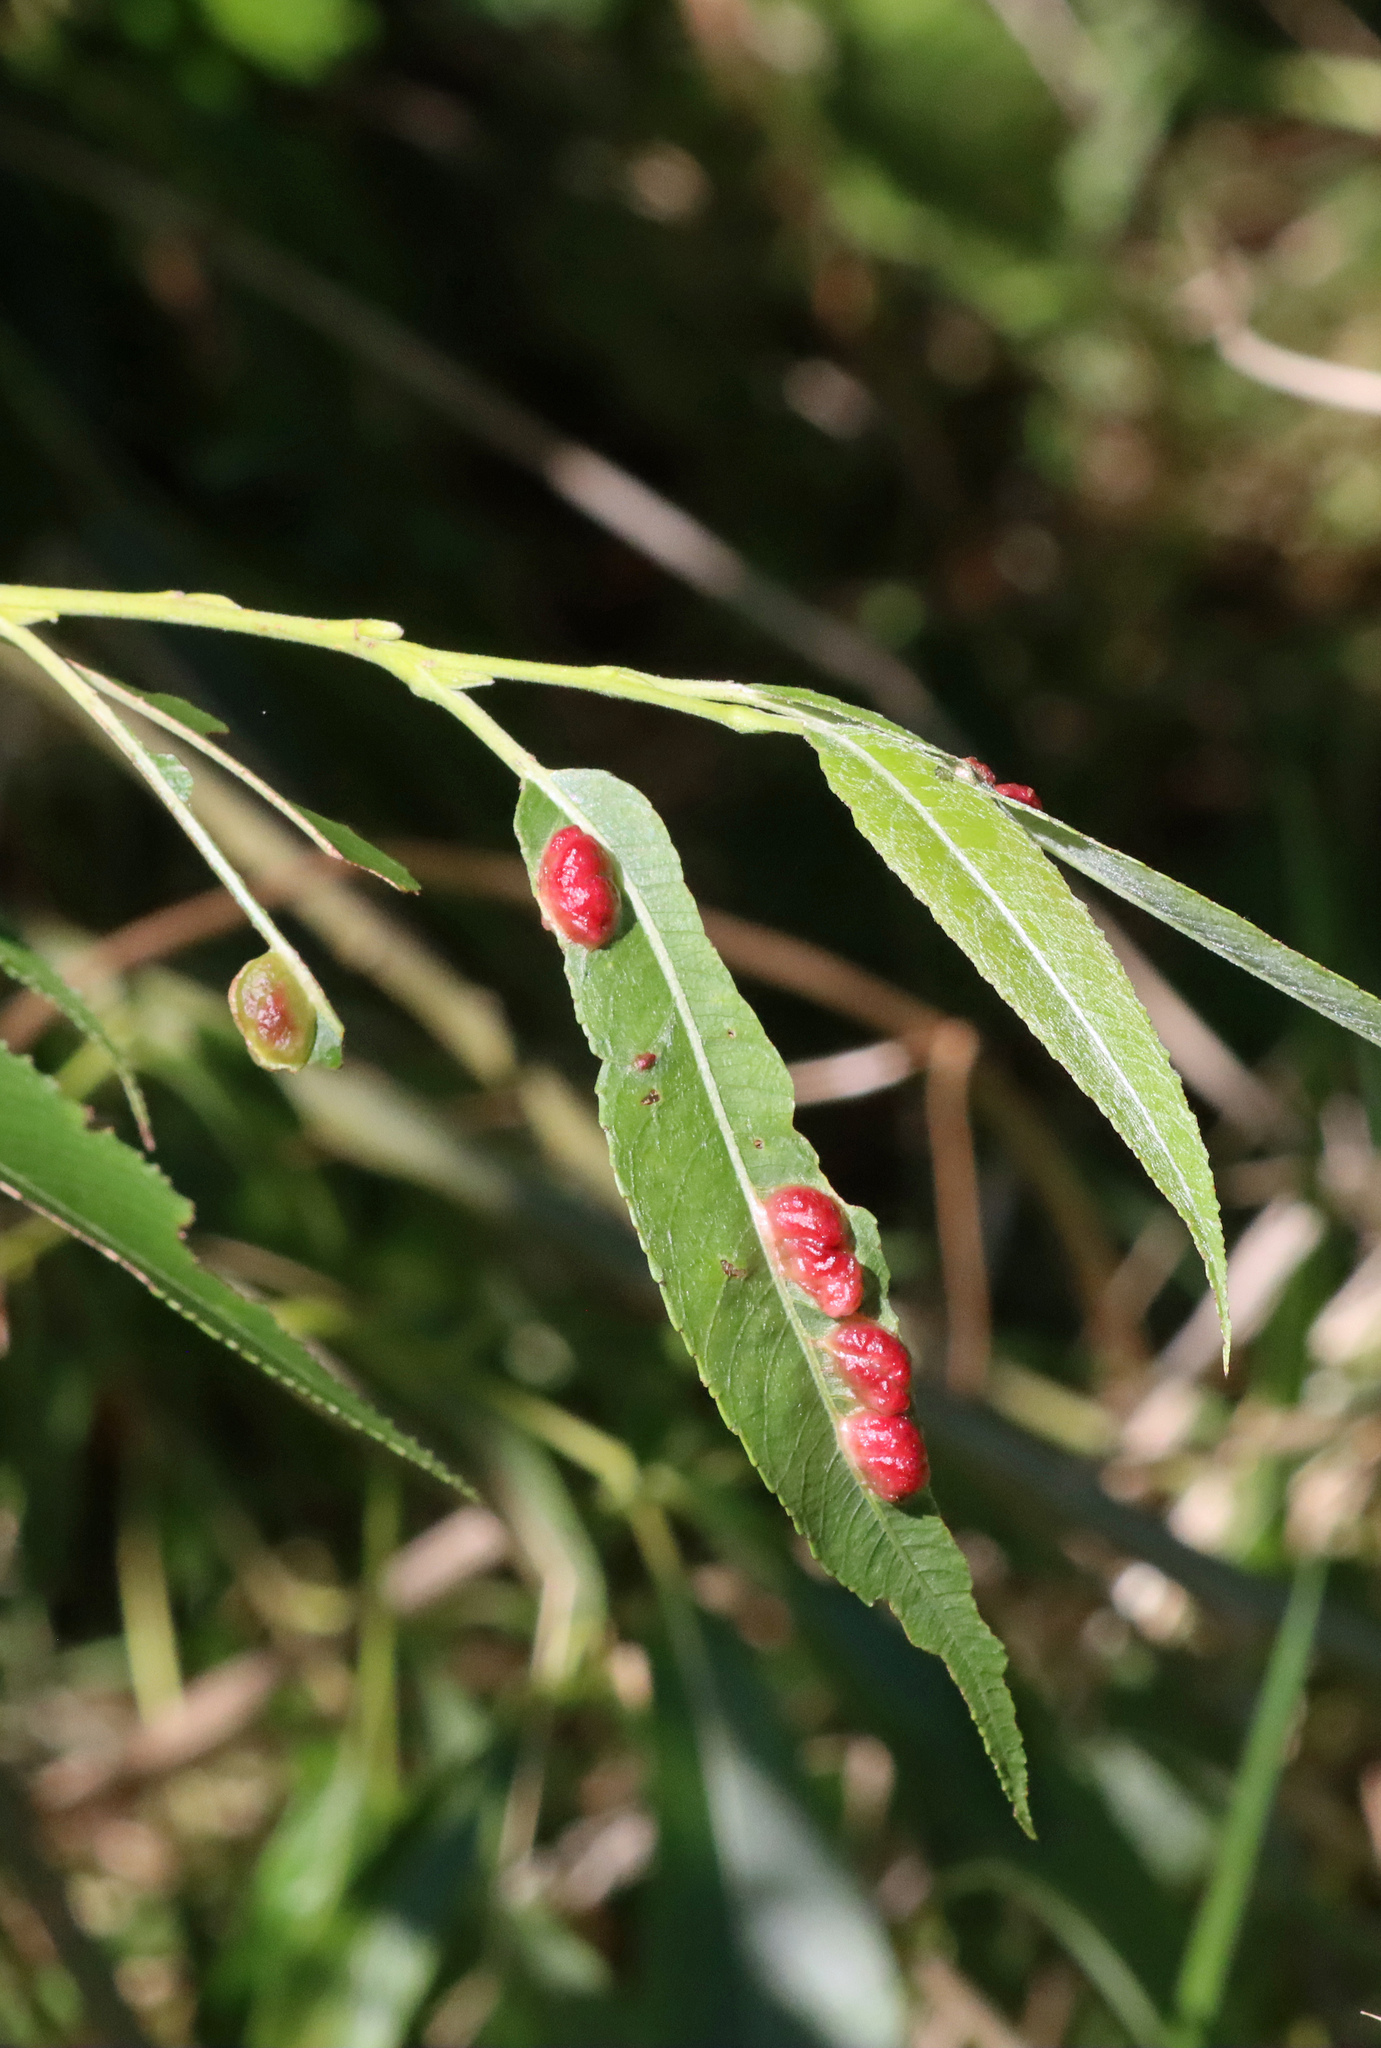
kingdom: Animalia
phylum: Arthropoda
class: Insecta
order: Hymenoptera
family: Tenthredinidae
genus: Pontania
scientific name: Pontania proxima
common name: Common sawfly
